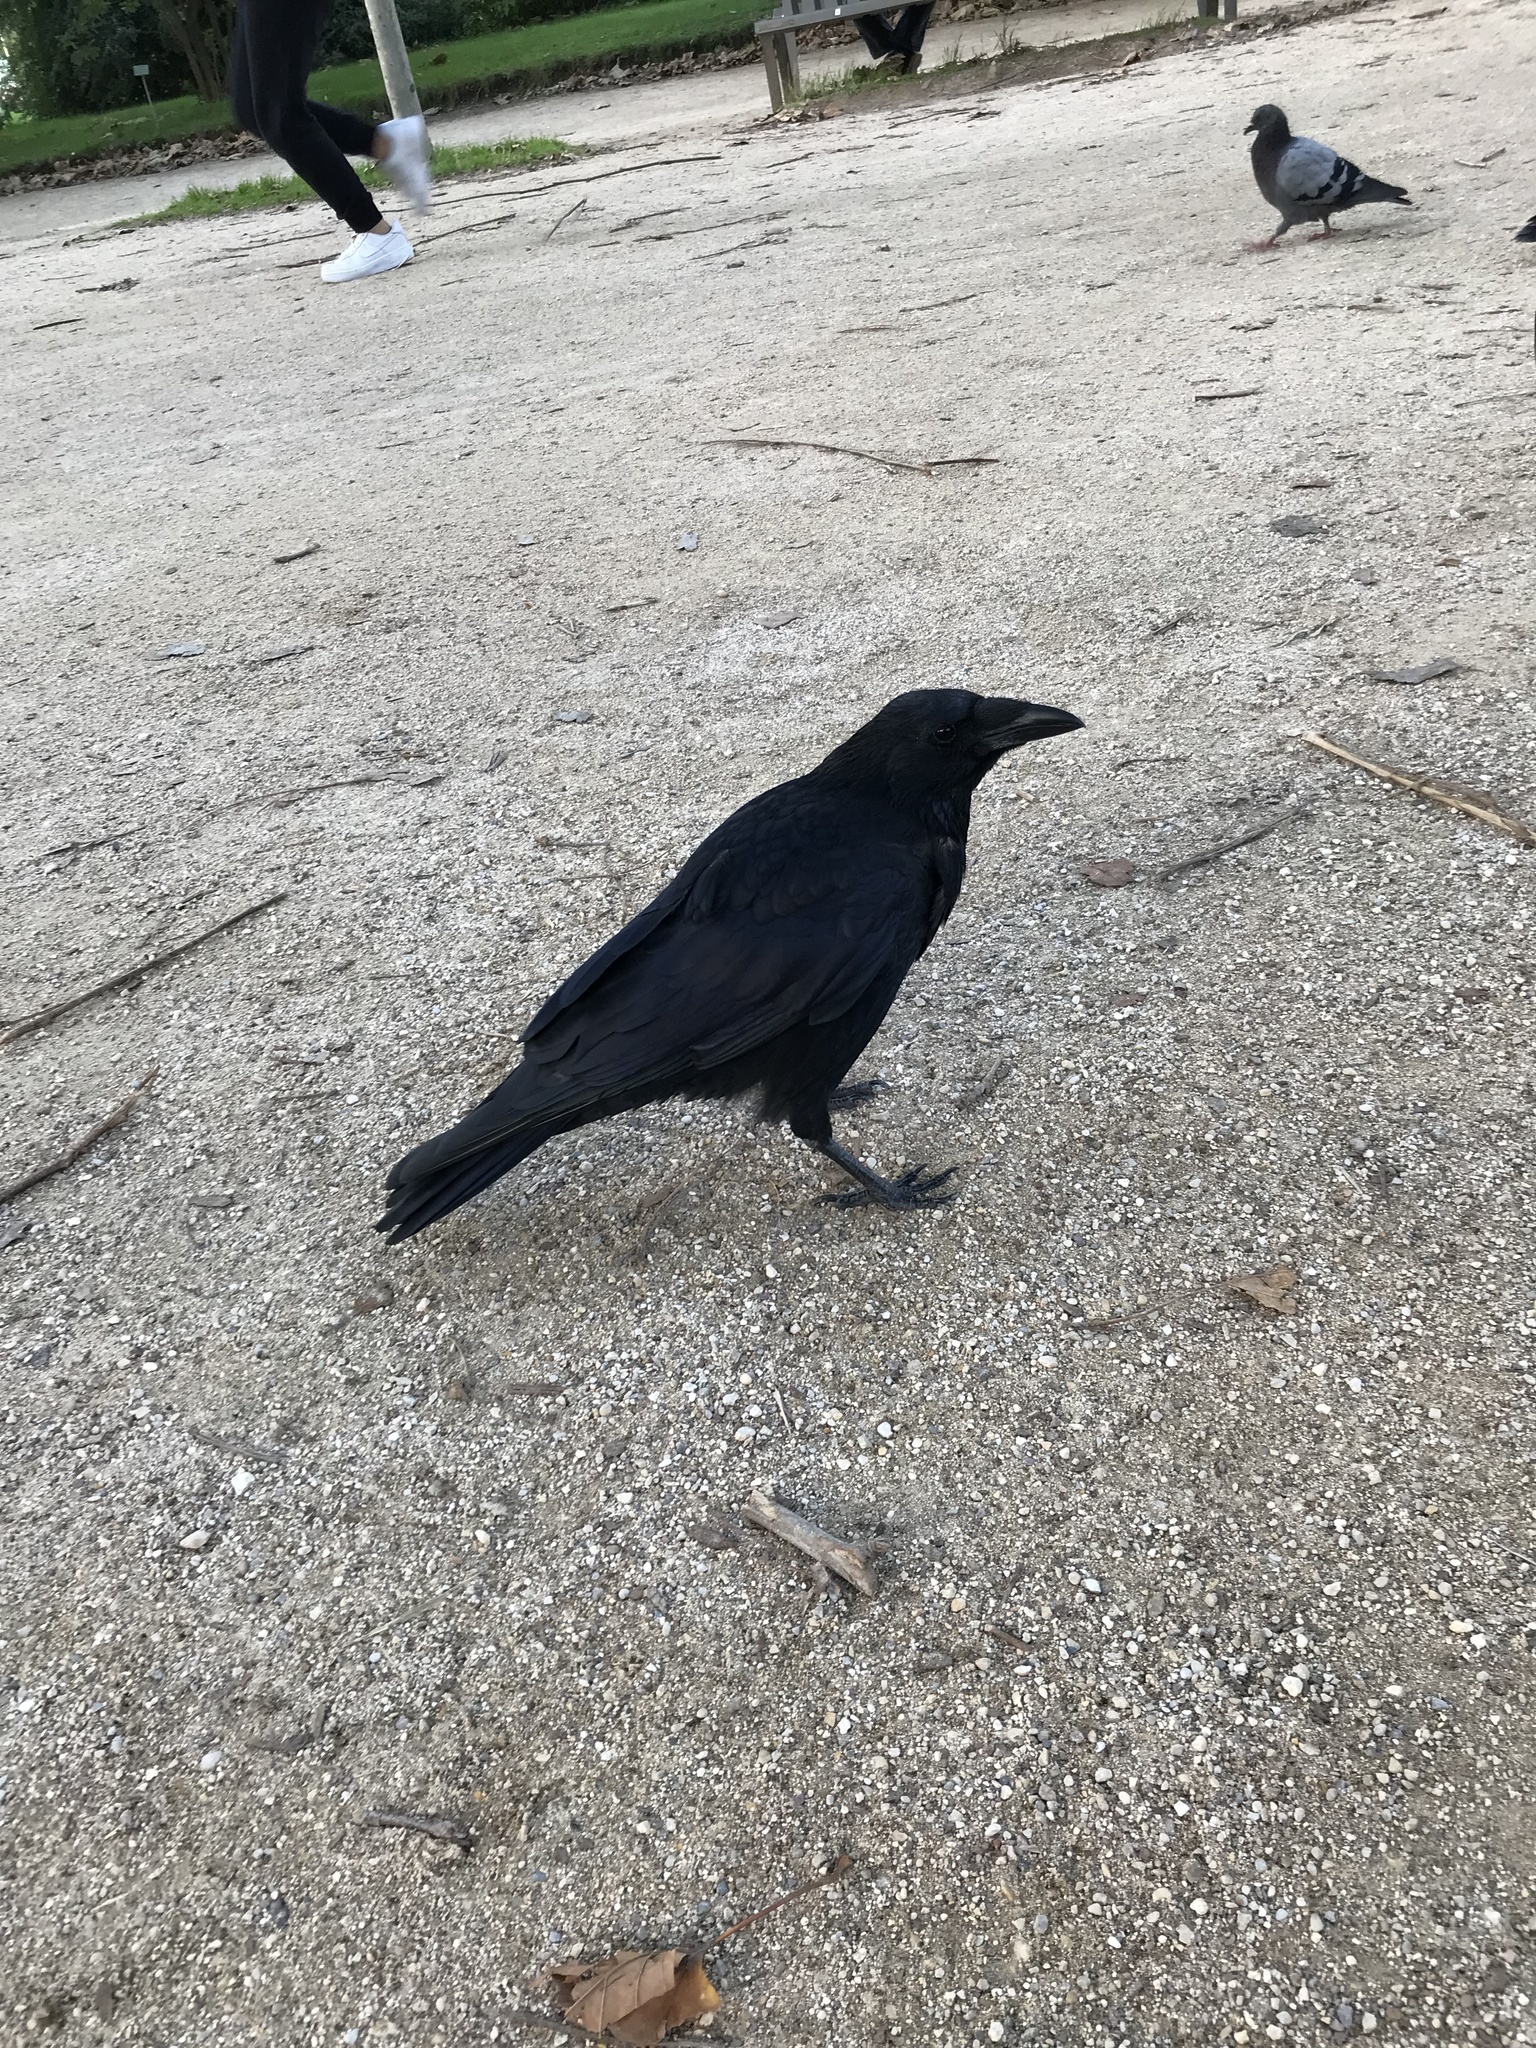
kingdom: Animalia
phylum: Chordata
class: Aves
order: Passeriformes
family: Corvidae
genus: Corvus
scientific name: Corvus corone
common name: Carrion crow
